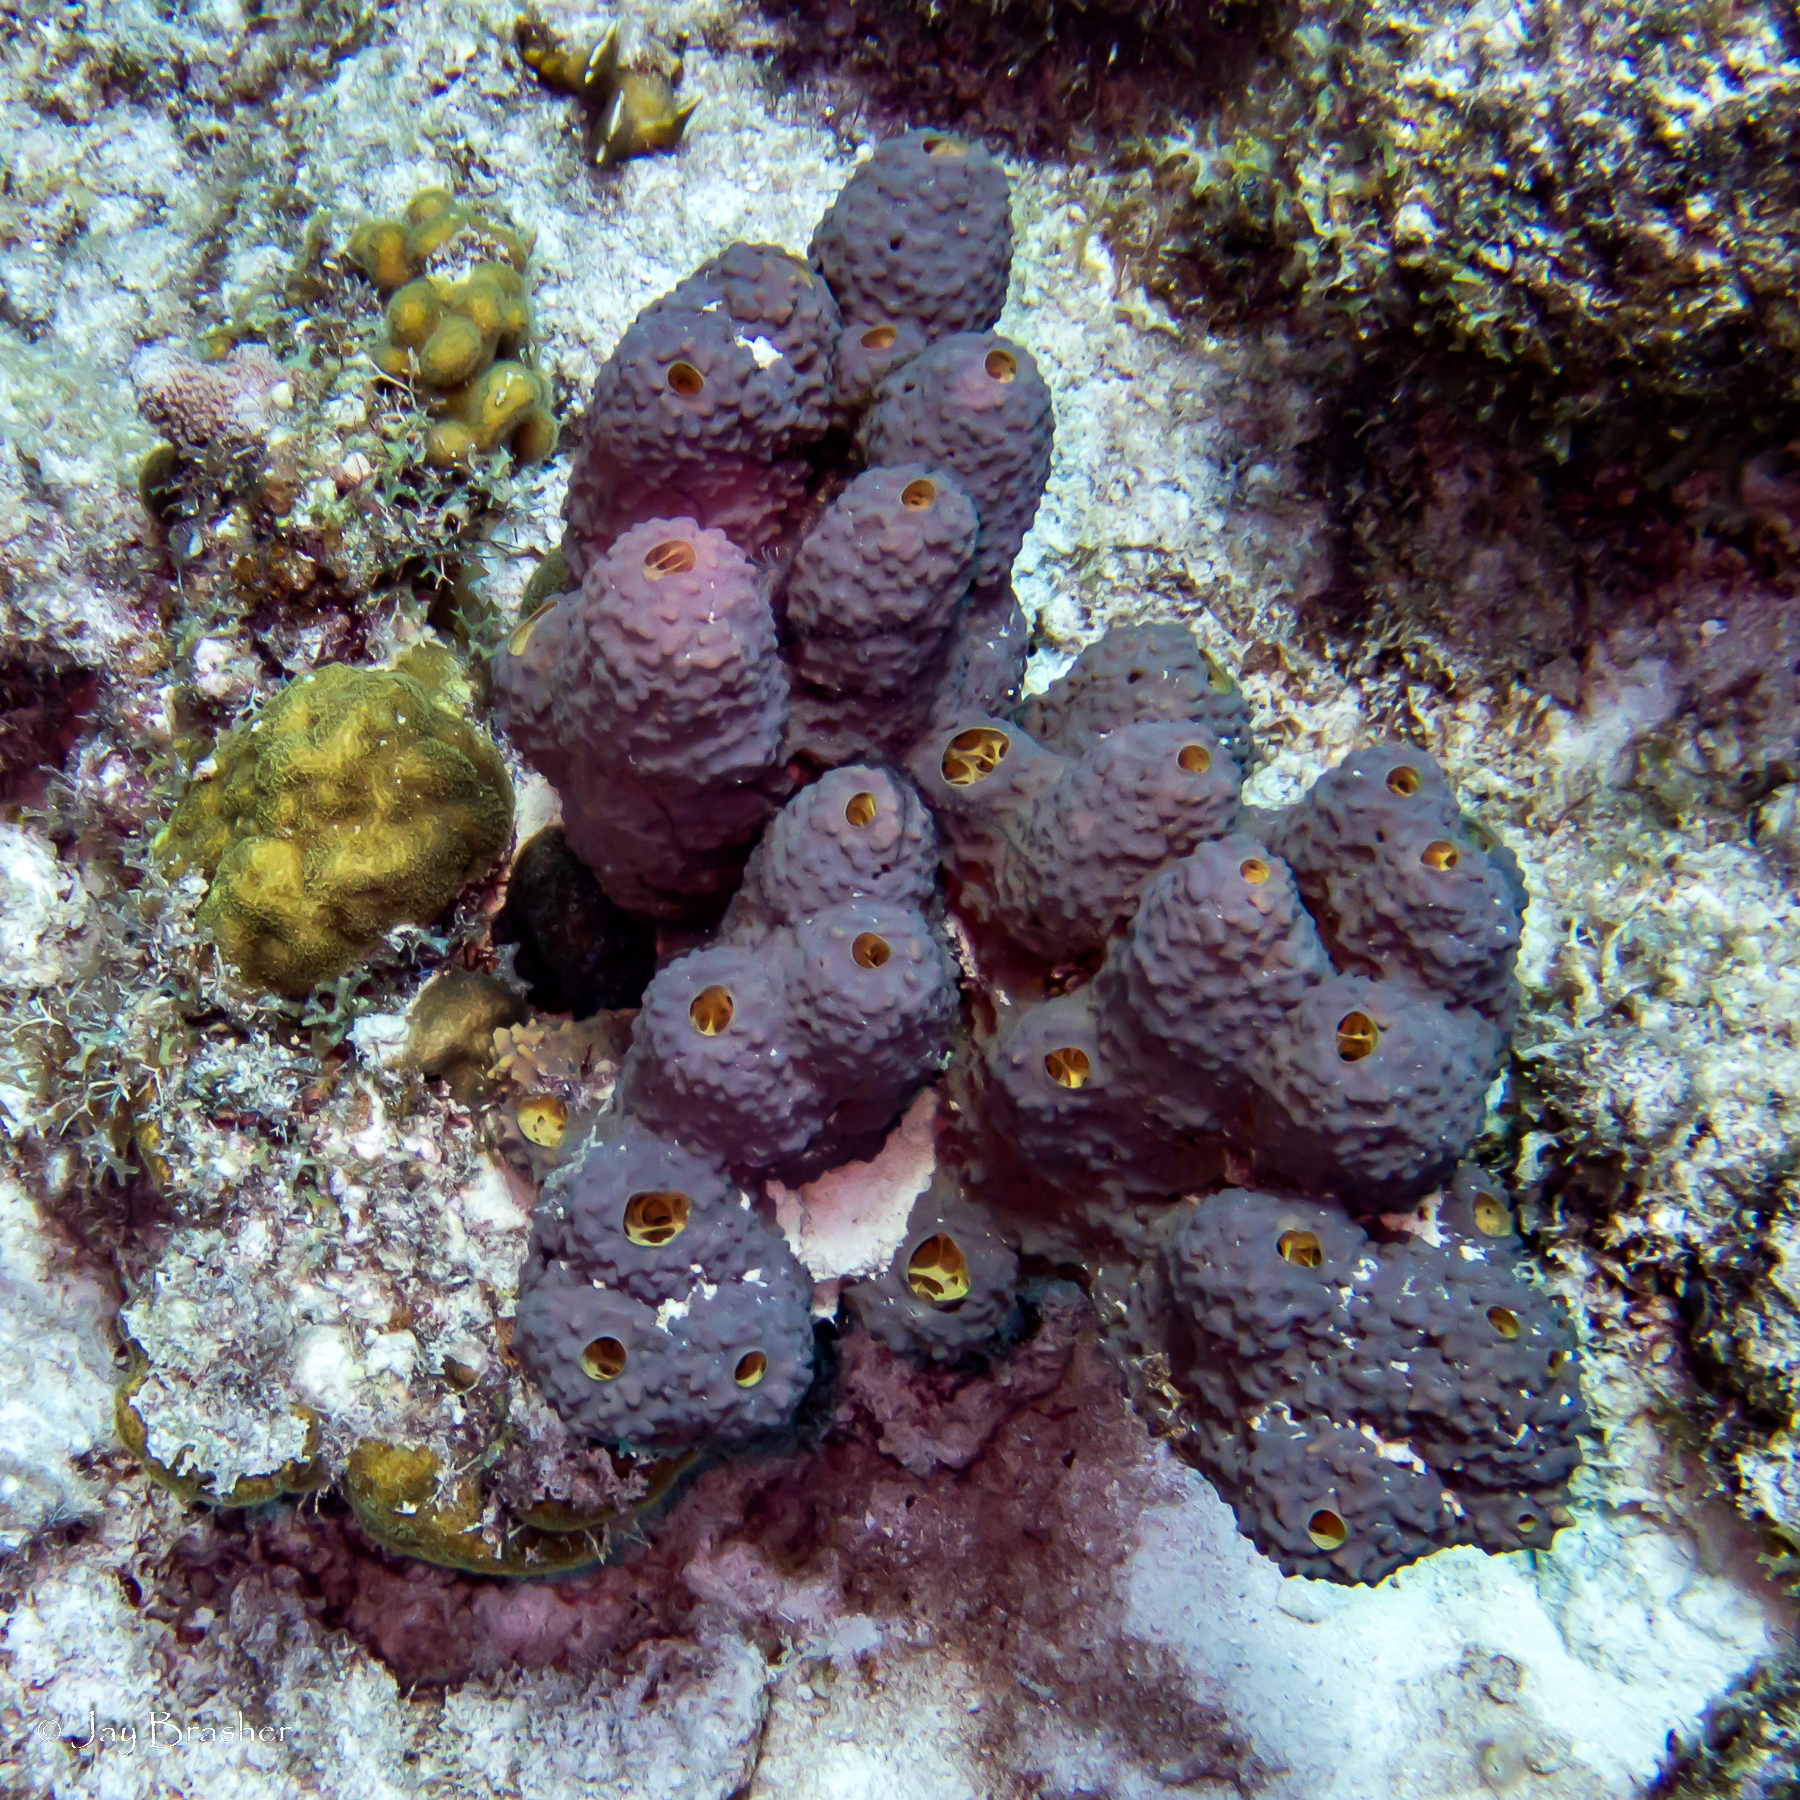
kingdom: Animalia
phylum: Porifera
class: Demospongiae
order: Verongiida
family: Aplysinidae
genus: Aiolochroia
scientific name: Aiolochroia crassa
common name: Branching tube sponge
